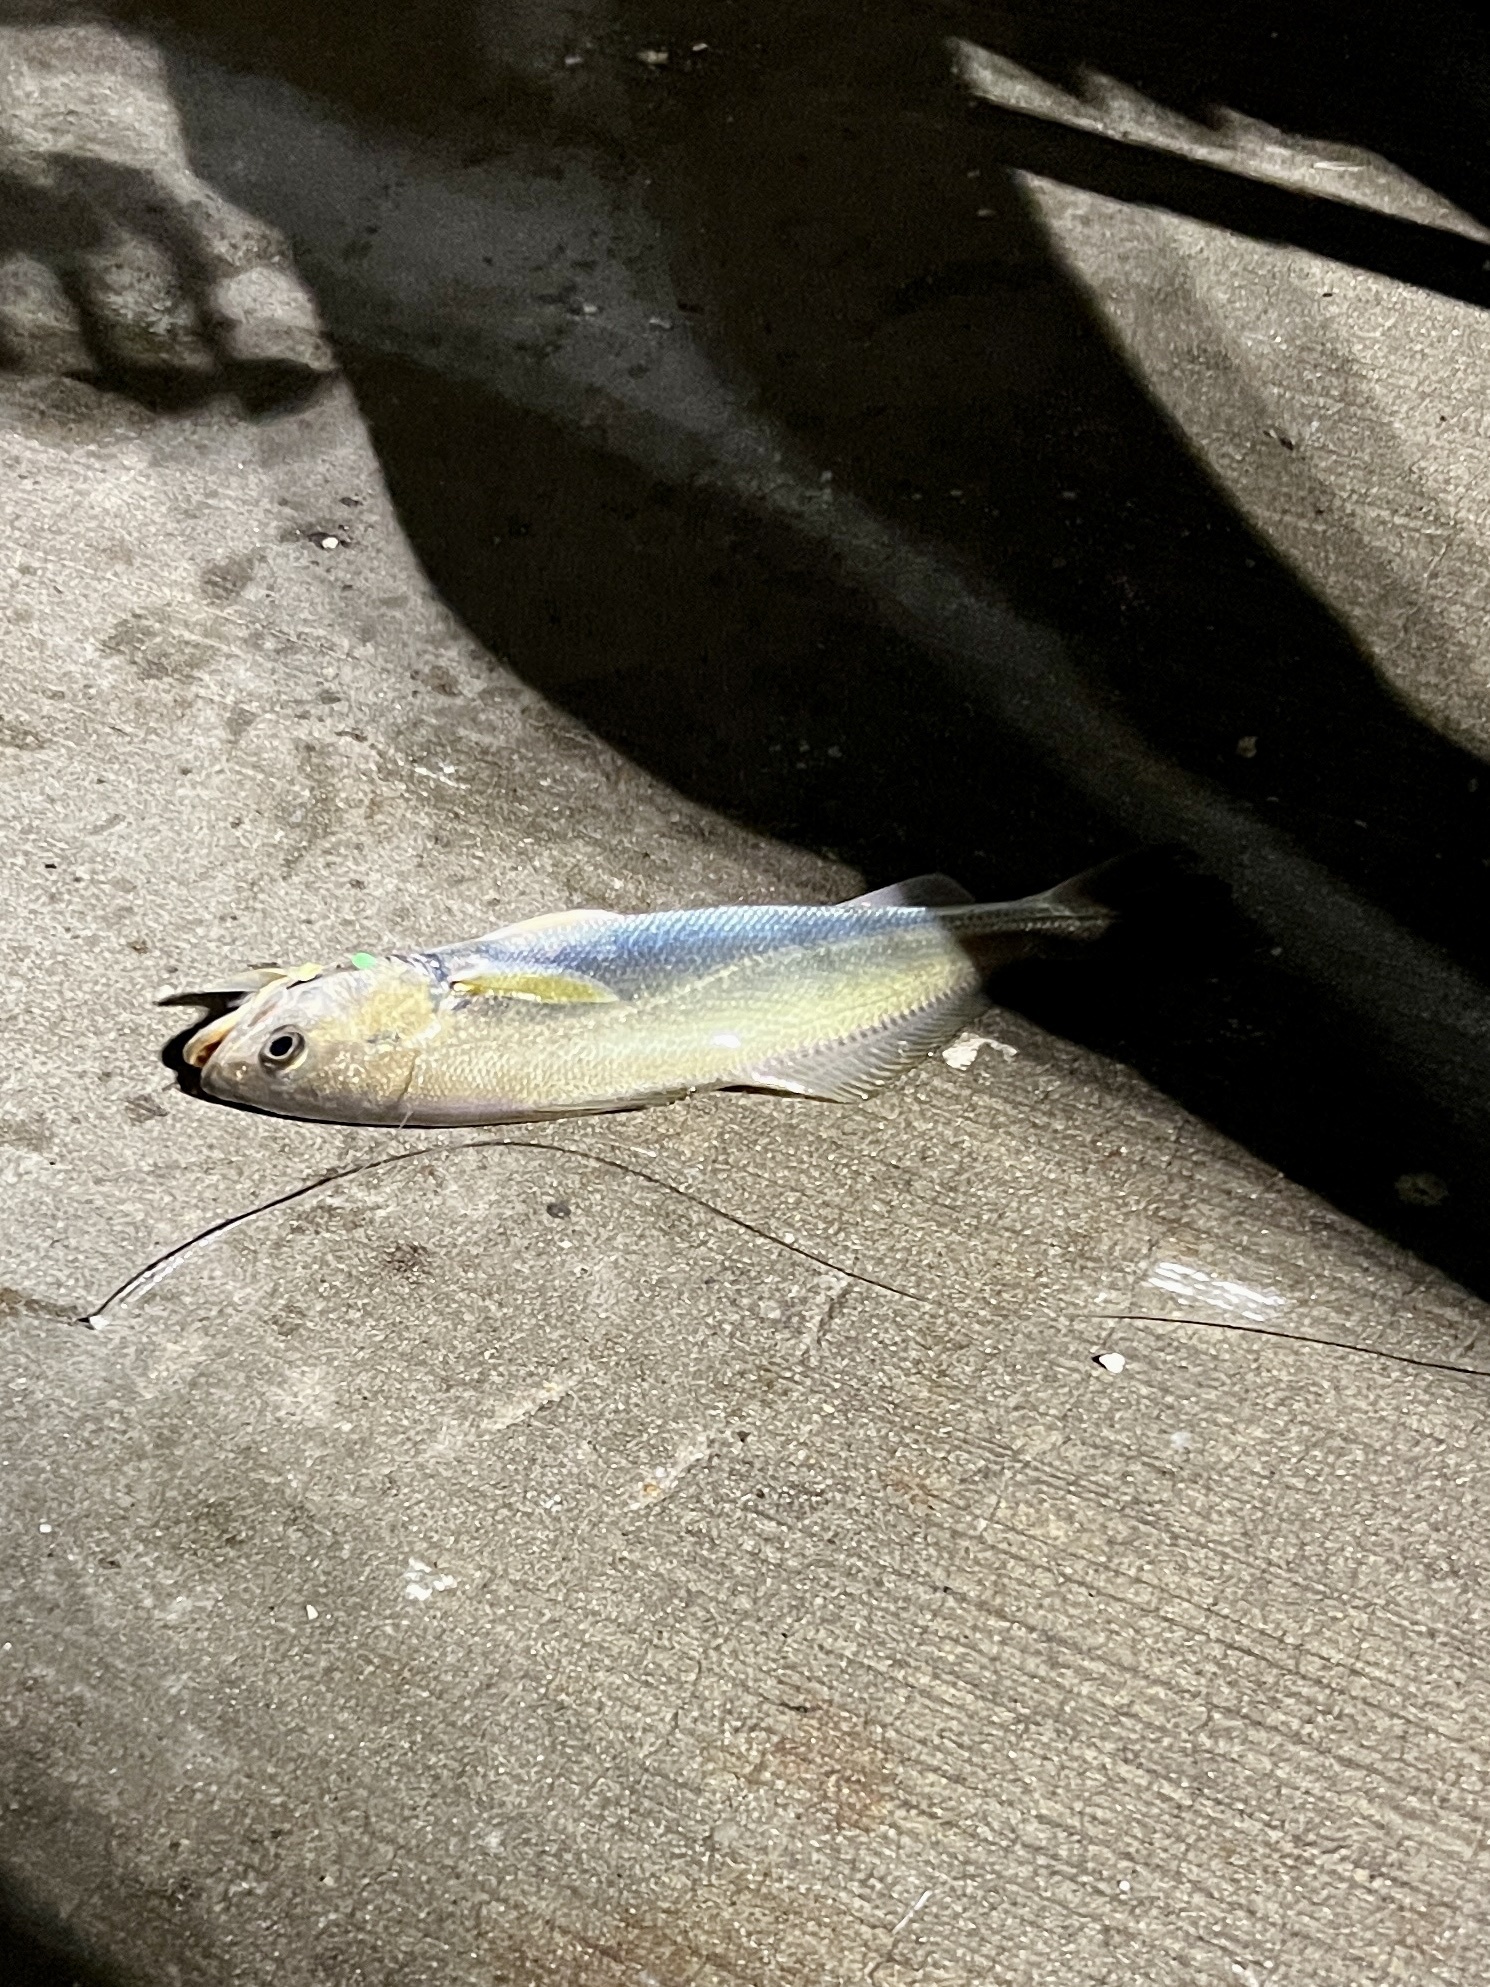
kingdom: Animalia
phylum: Chordata
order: Perciformes
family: Sciaenidae
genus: Cynoscion
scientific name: Cynoscion arenarius
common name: Sand seatrout
